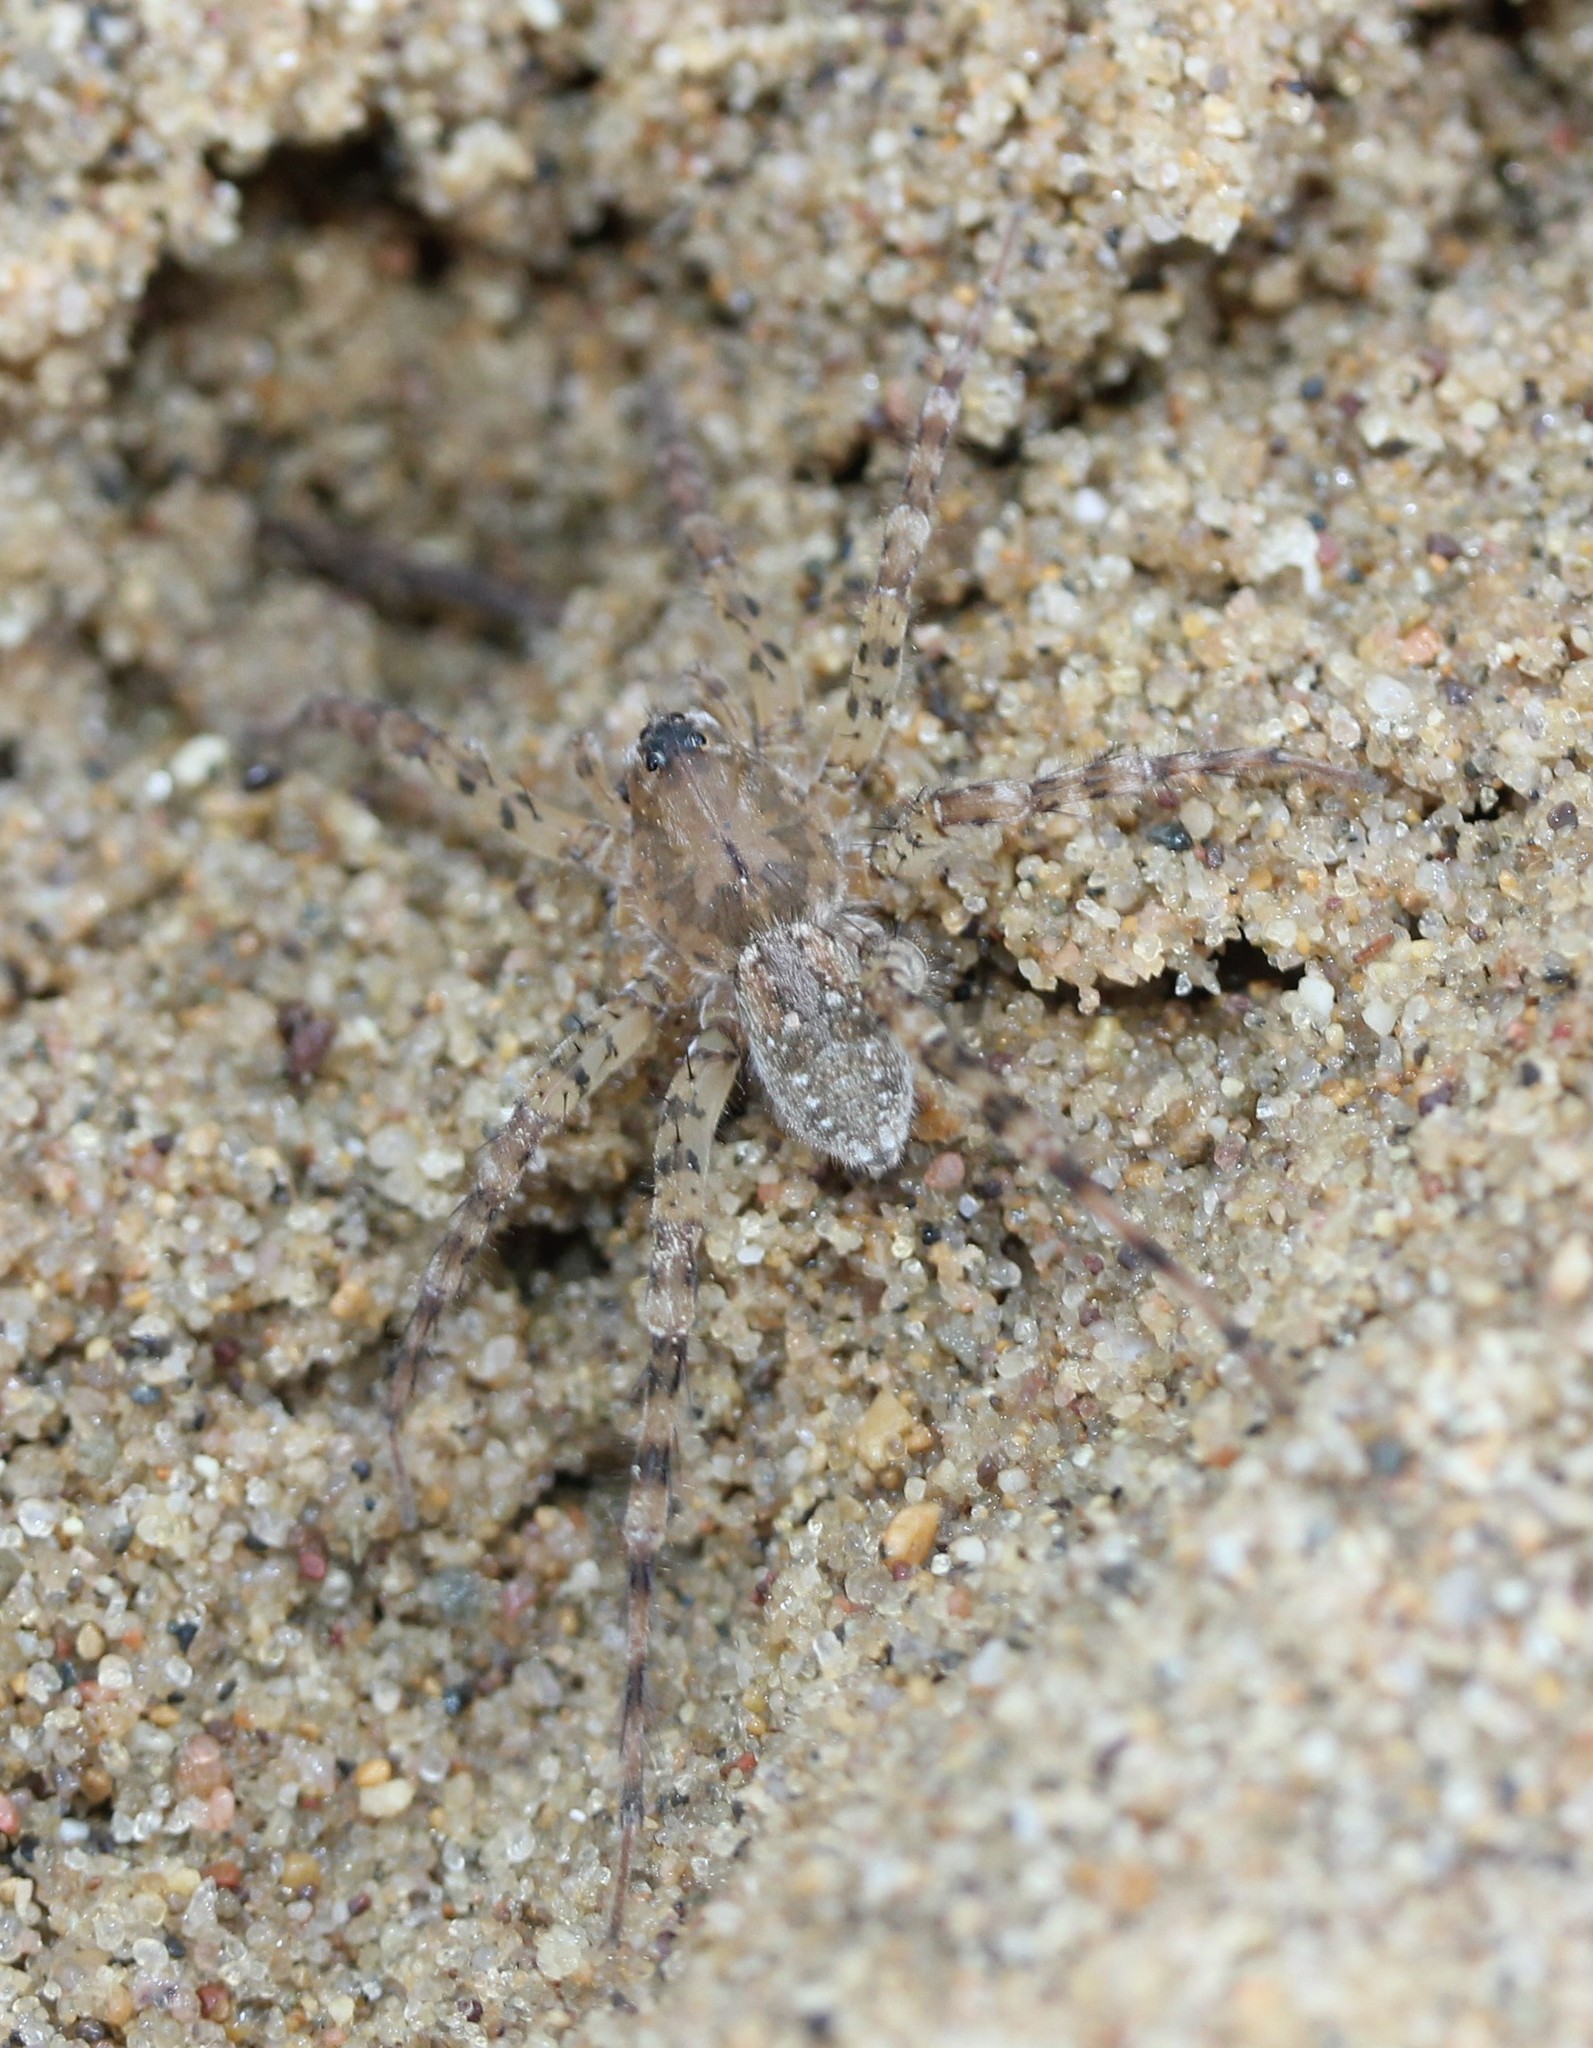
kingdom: Animalia
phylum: Arthropoda
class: Arachnida
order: Araneae
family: Lycosidae
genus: Arctosa
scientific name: Arctosa littoralis
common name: Wolf spiders
